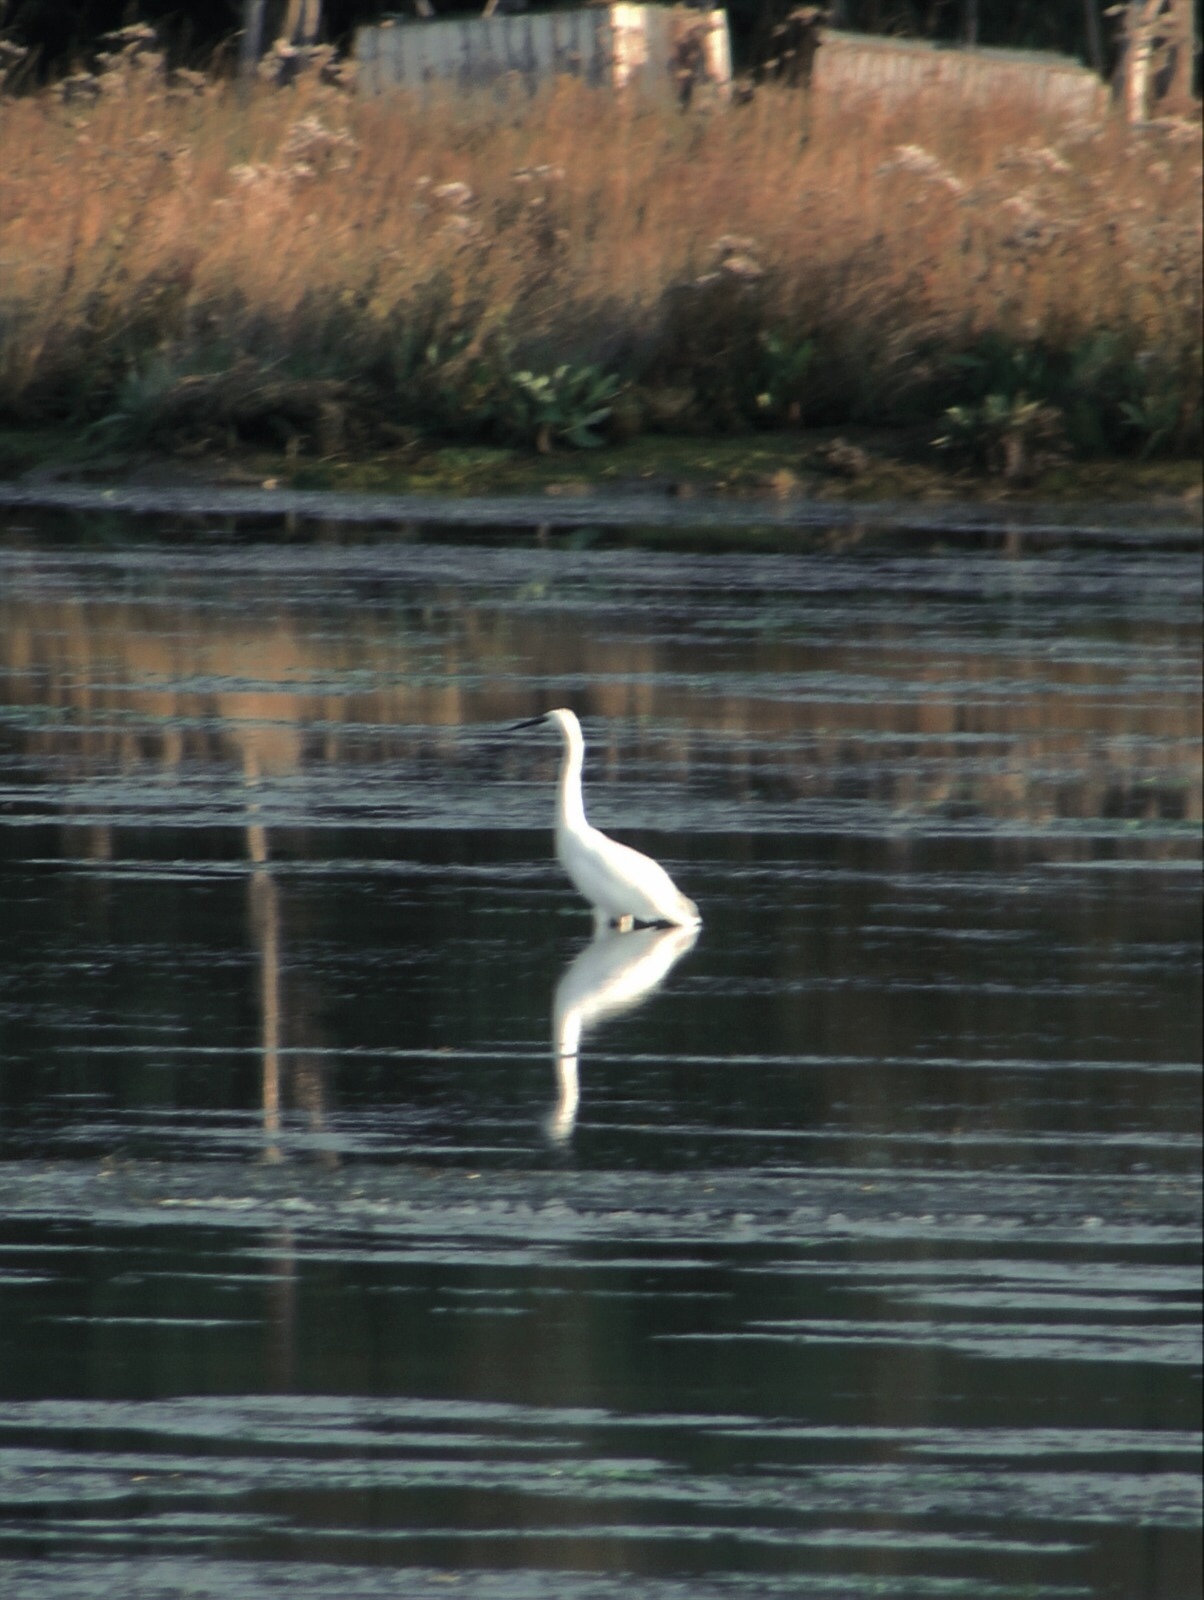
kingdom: Animalia
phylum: Chordata
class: Aves
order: Pelecaniformes
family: Ardeidae
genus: Egretta
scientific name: Egretta garzetta
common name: Little egret
